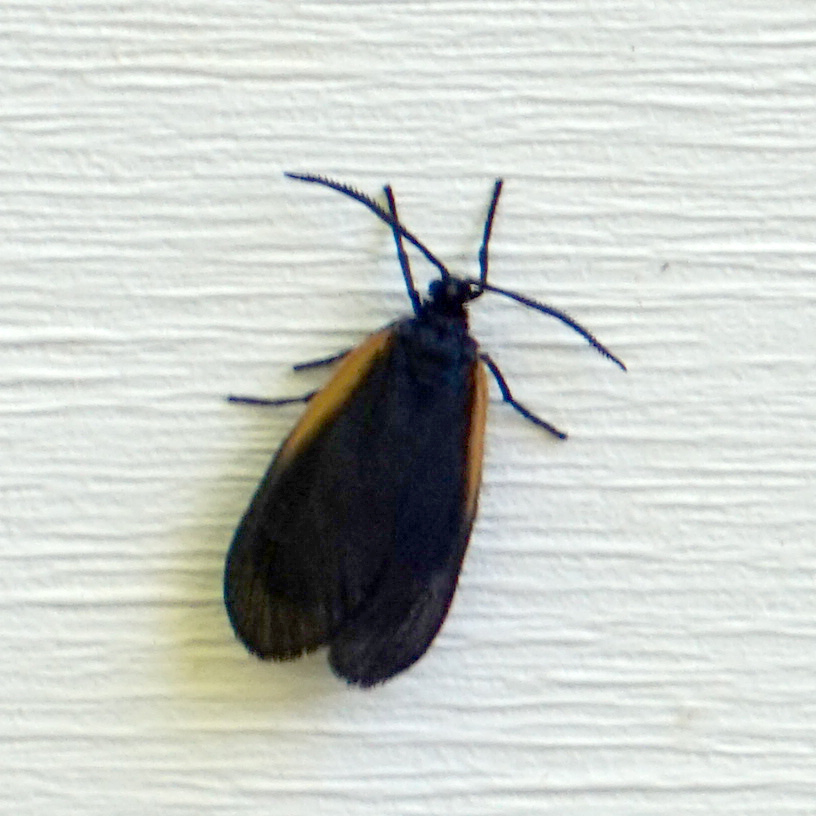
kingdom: Animalia
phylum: Arthropoda
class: Insecta
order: Lepidoptera
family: Zygaenidae
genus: Malthaca
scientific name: Malthaca dimidiata
